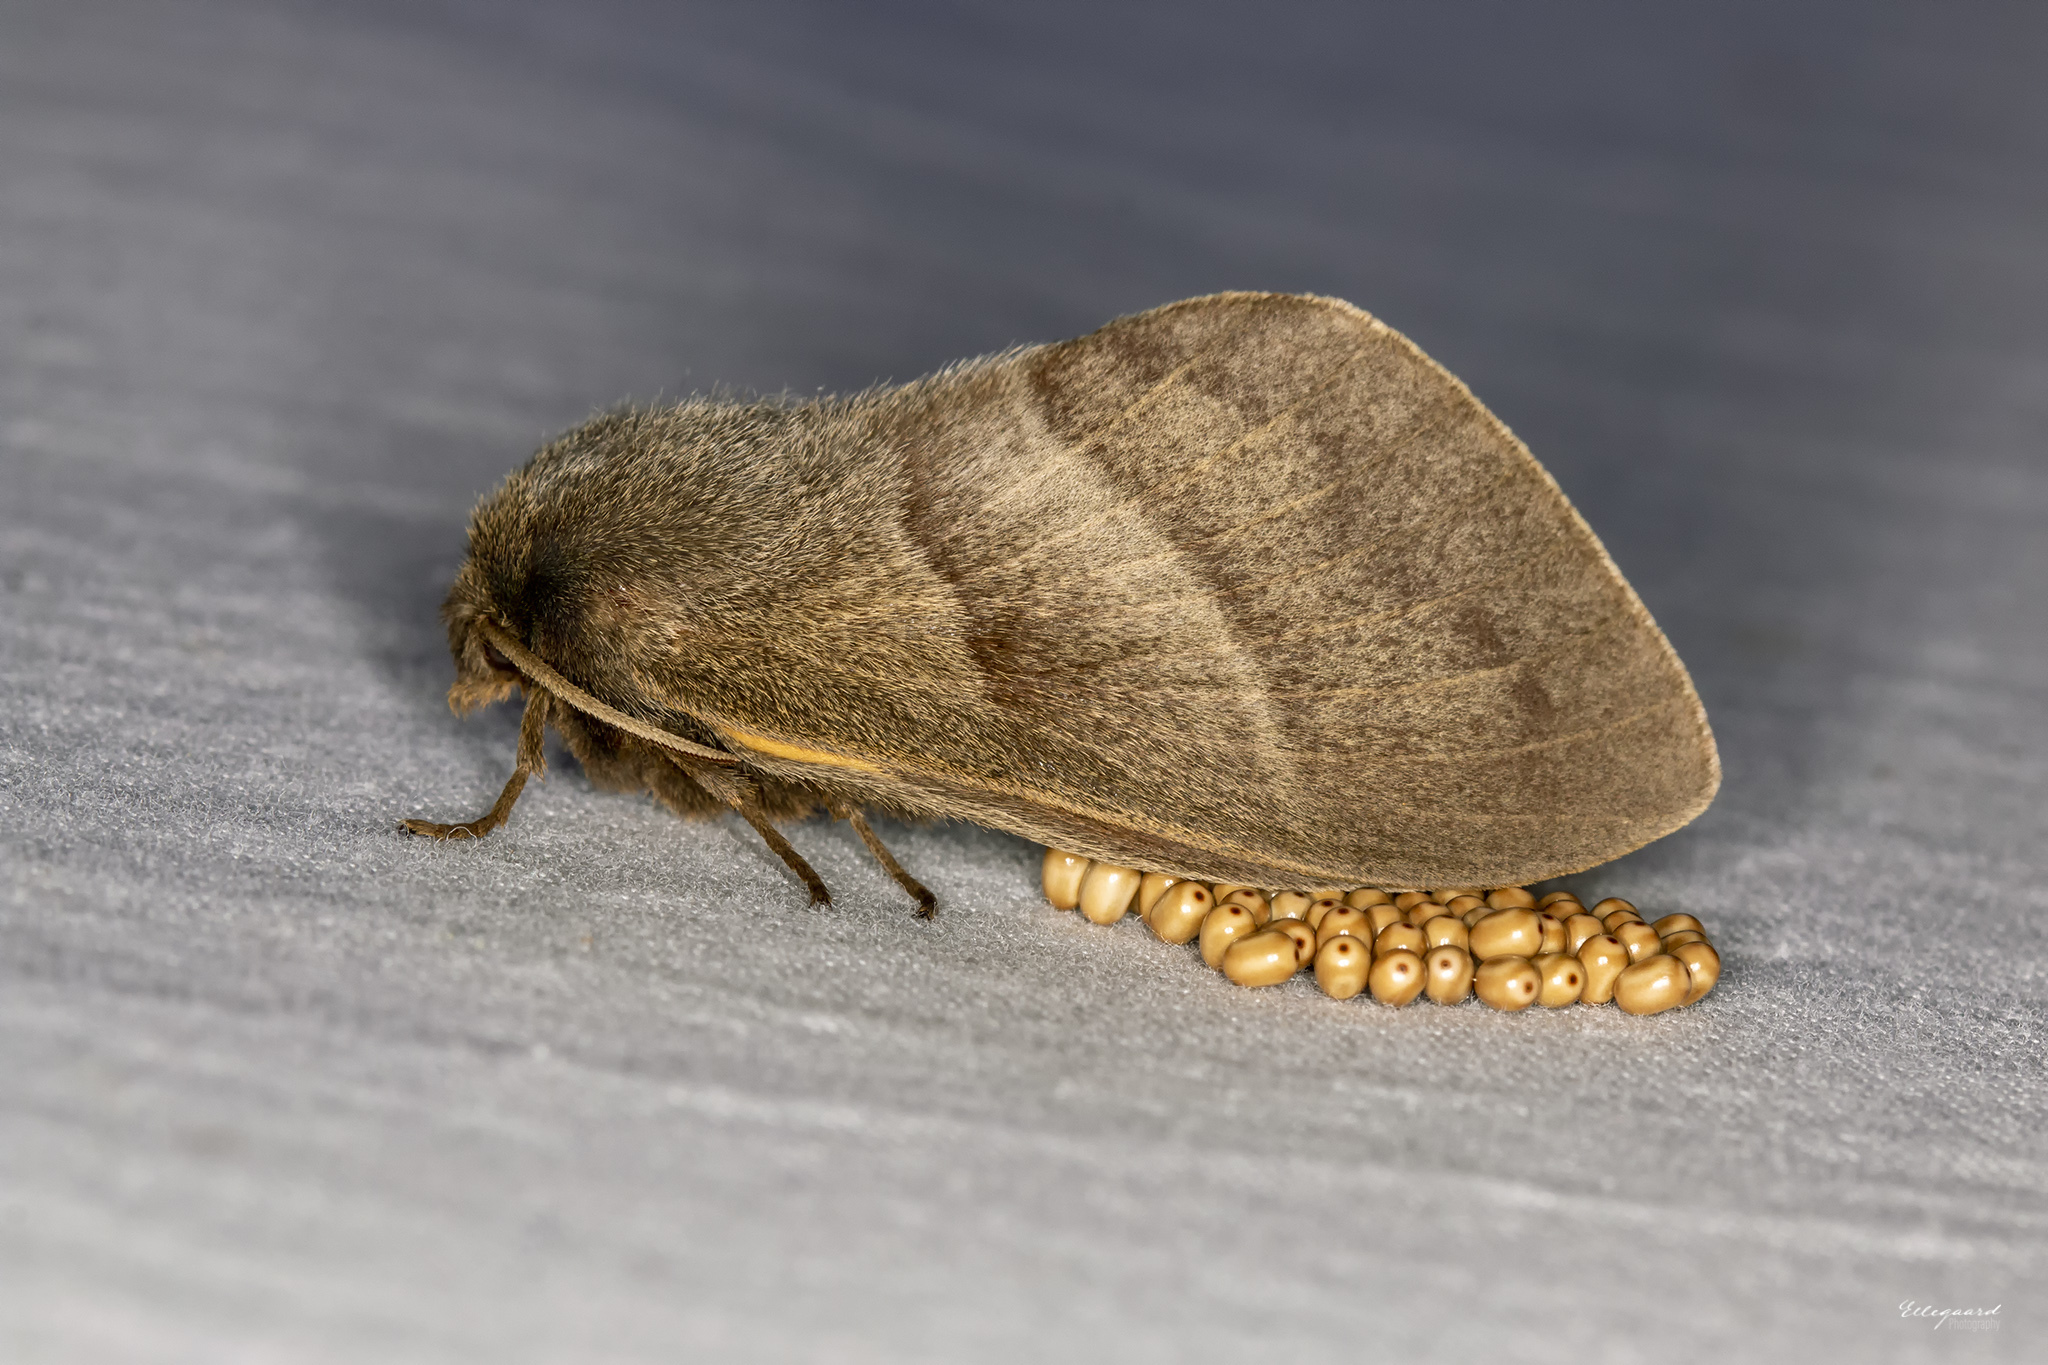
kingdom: Animalia
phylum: Arthropoda
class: Insecta
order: Lepidoptera
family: Lasiocampidae
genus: Macrothylacia
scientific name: Macrothylacia rubi
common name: Fox moth
